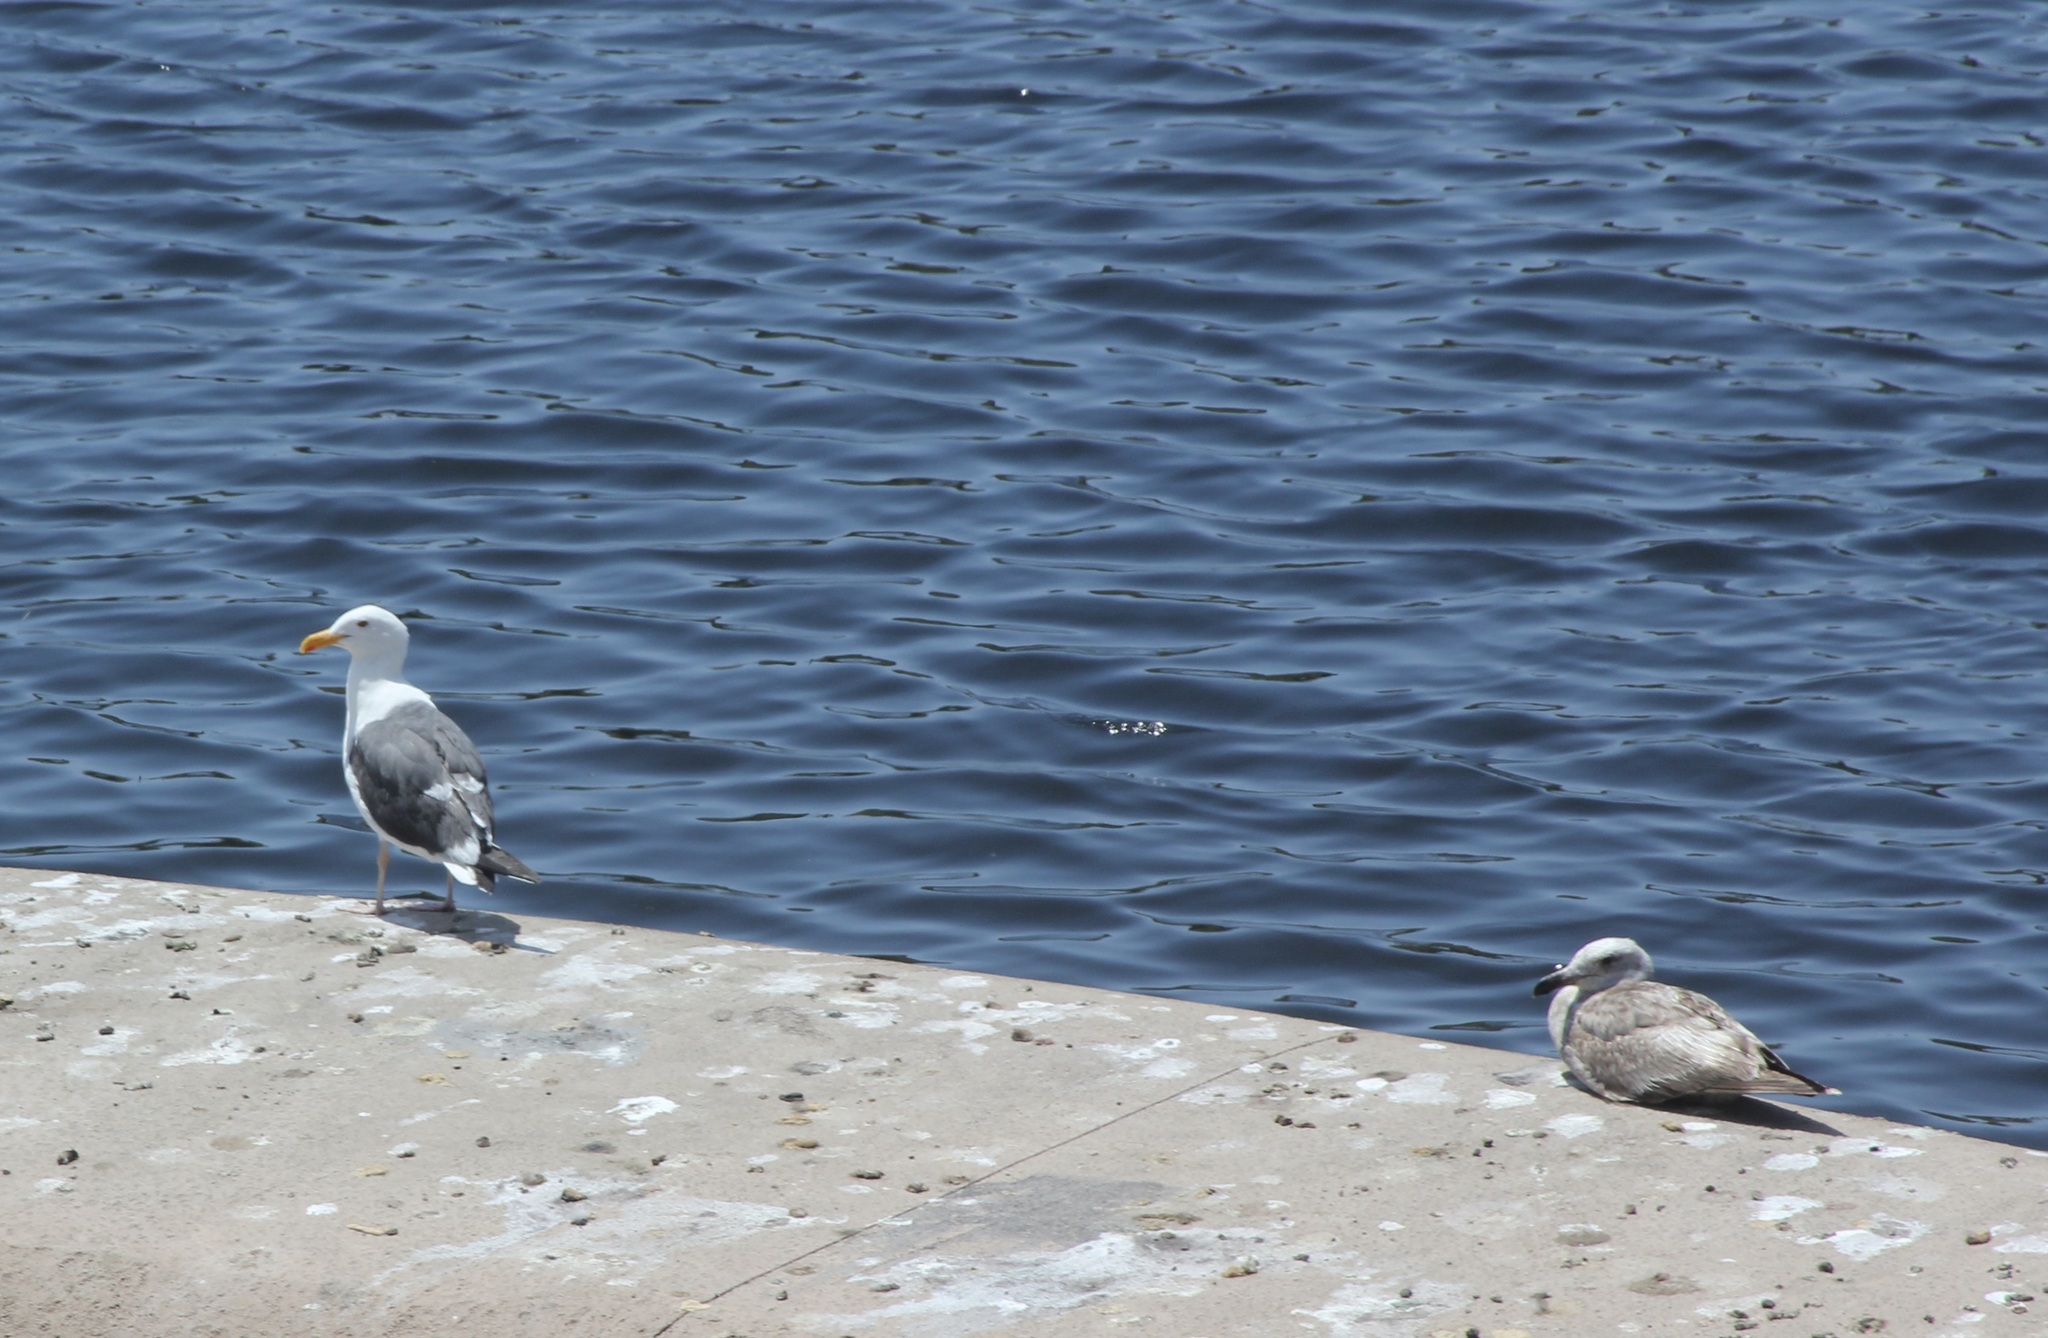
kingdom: Animalia
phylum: Chordata
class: Aves
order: Charadriiformes
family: Laridae
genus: Larus
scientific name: Larus occidentalis
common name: Western gull
